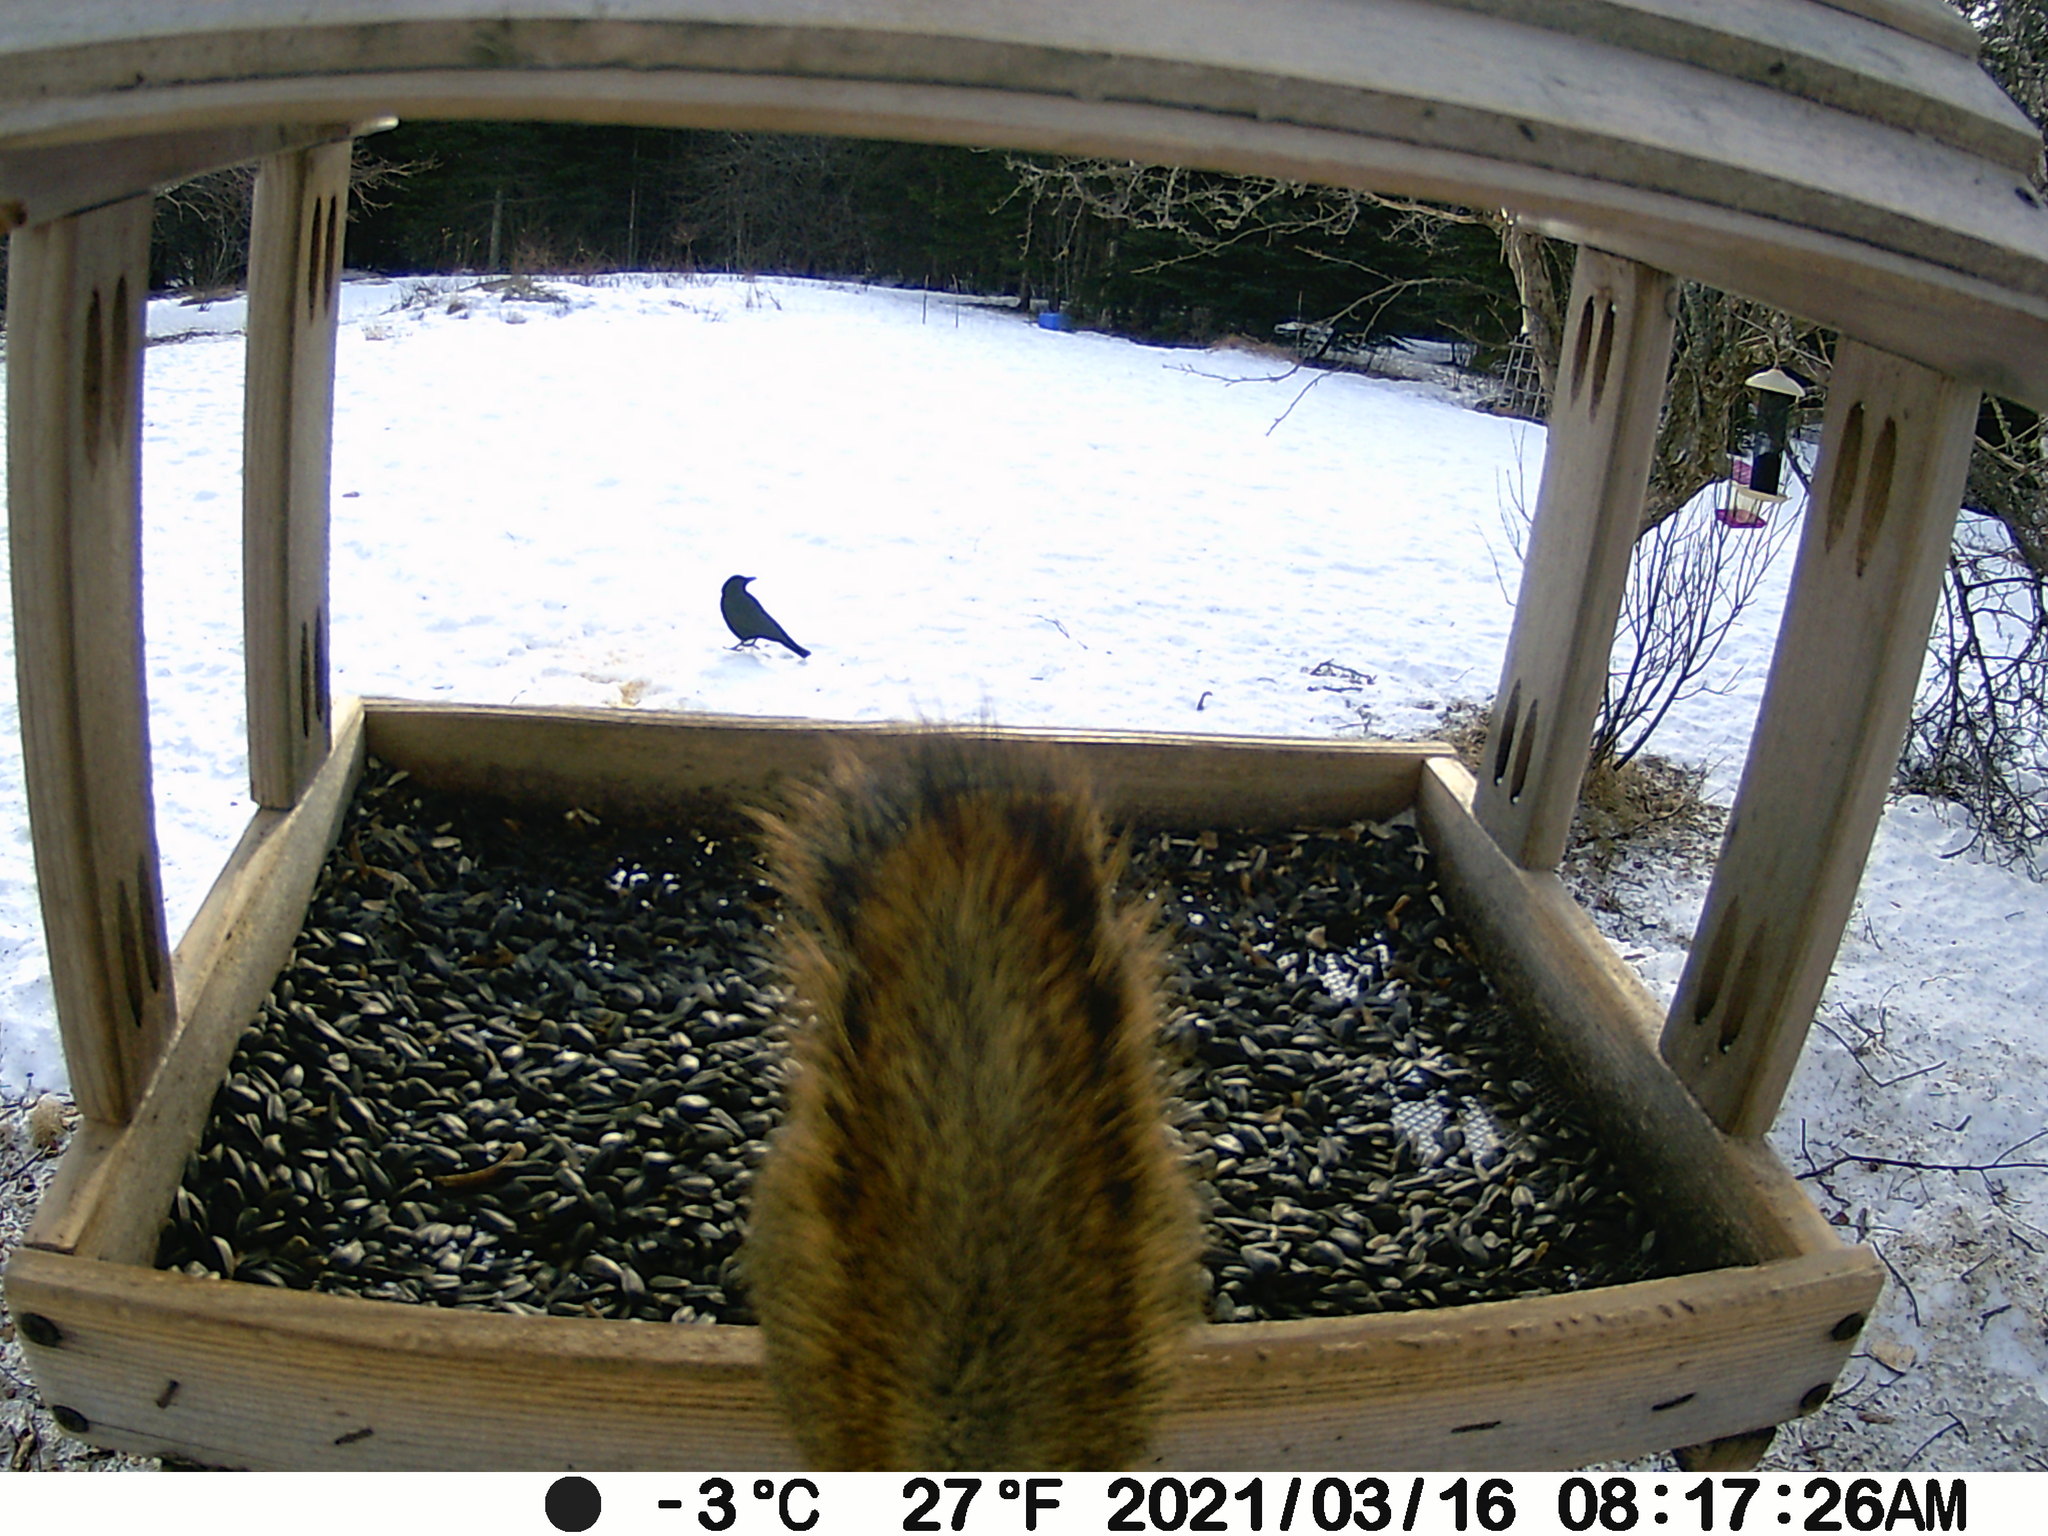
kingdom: Animalia
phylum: Chordata
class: Aves
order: Passeriformes
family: Corvidae
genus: Corvus
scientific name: Corvus brachyrhynchos
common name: American crow
